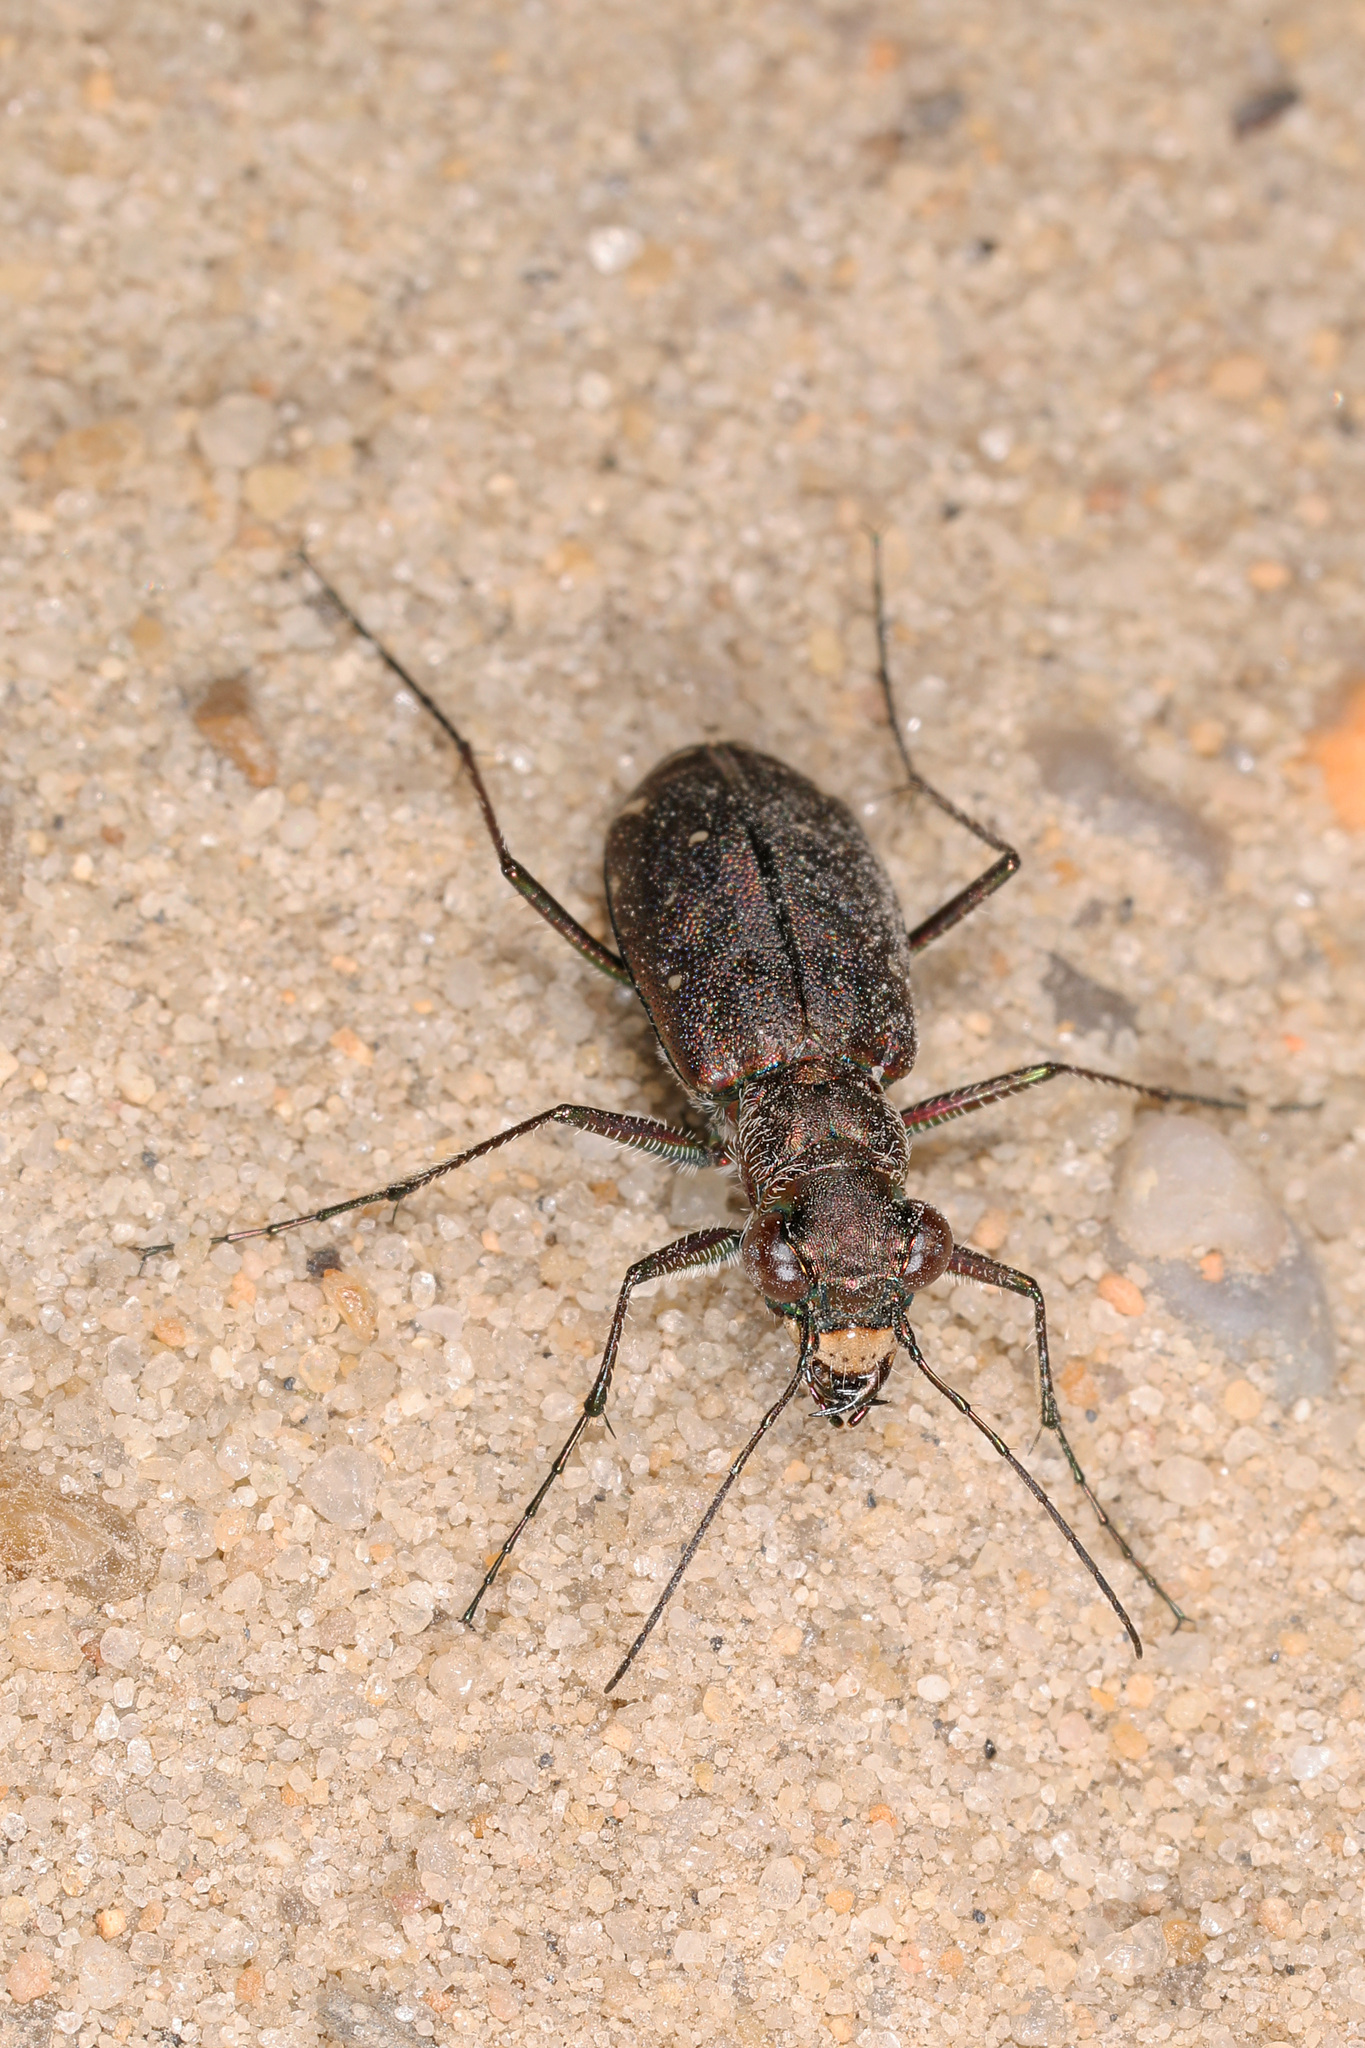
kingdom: Animalia
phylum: Arthropoda
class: Insecta
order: Coleoptera
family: Carabidae
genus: Cicindela
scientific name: Cicindela punctulata
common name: Punctured tiger beetle
